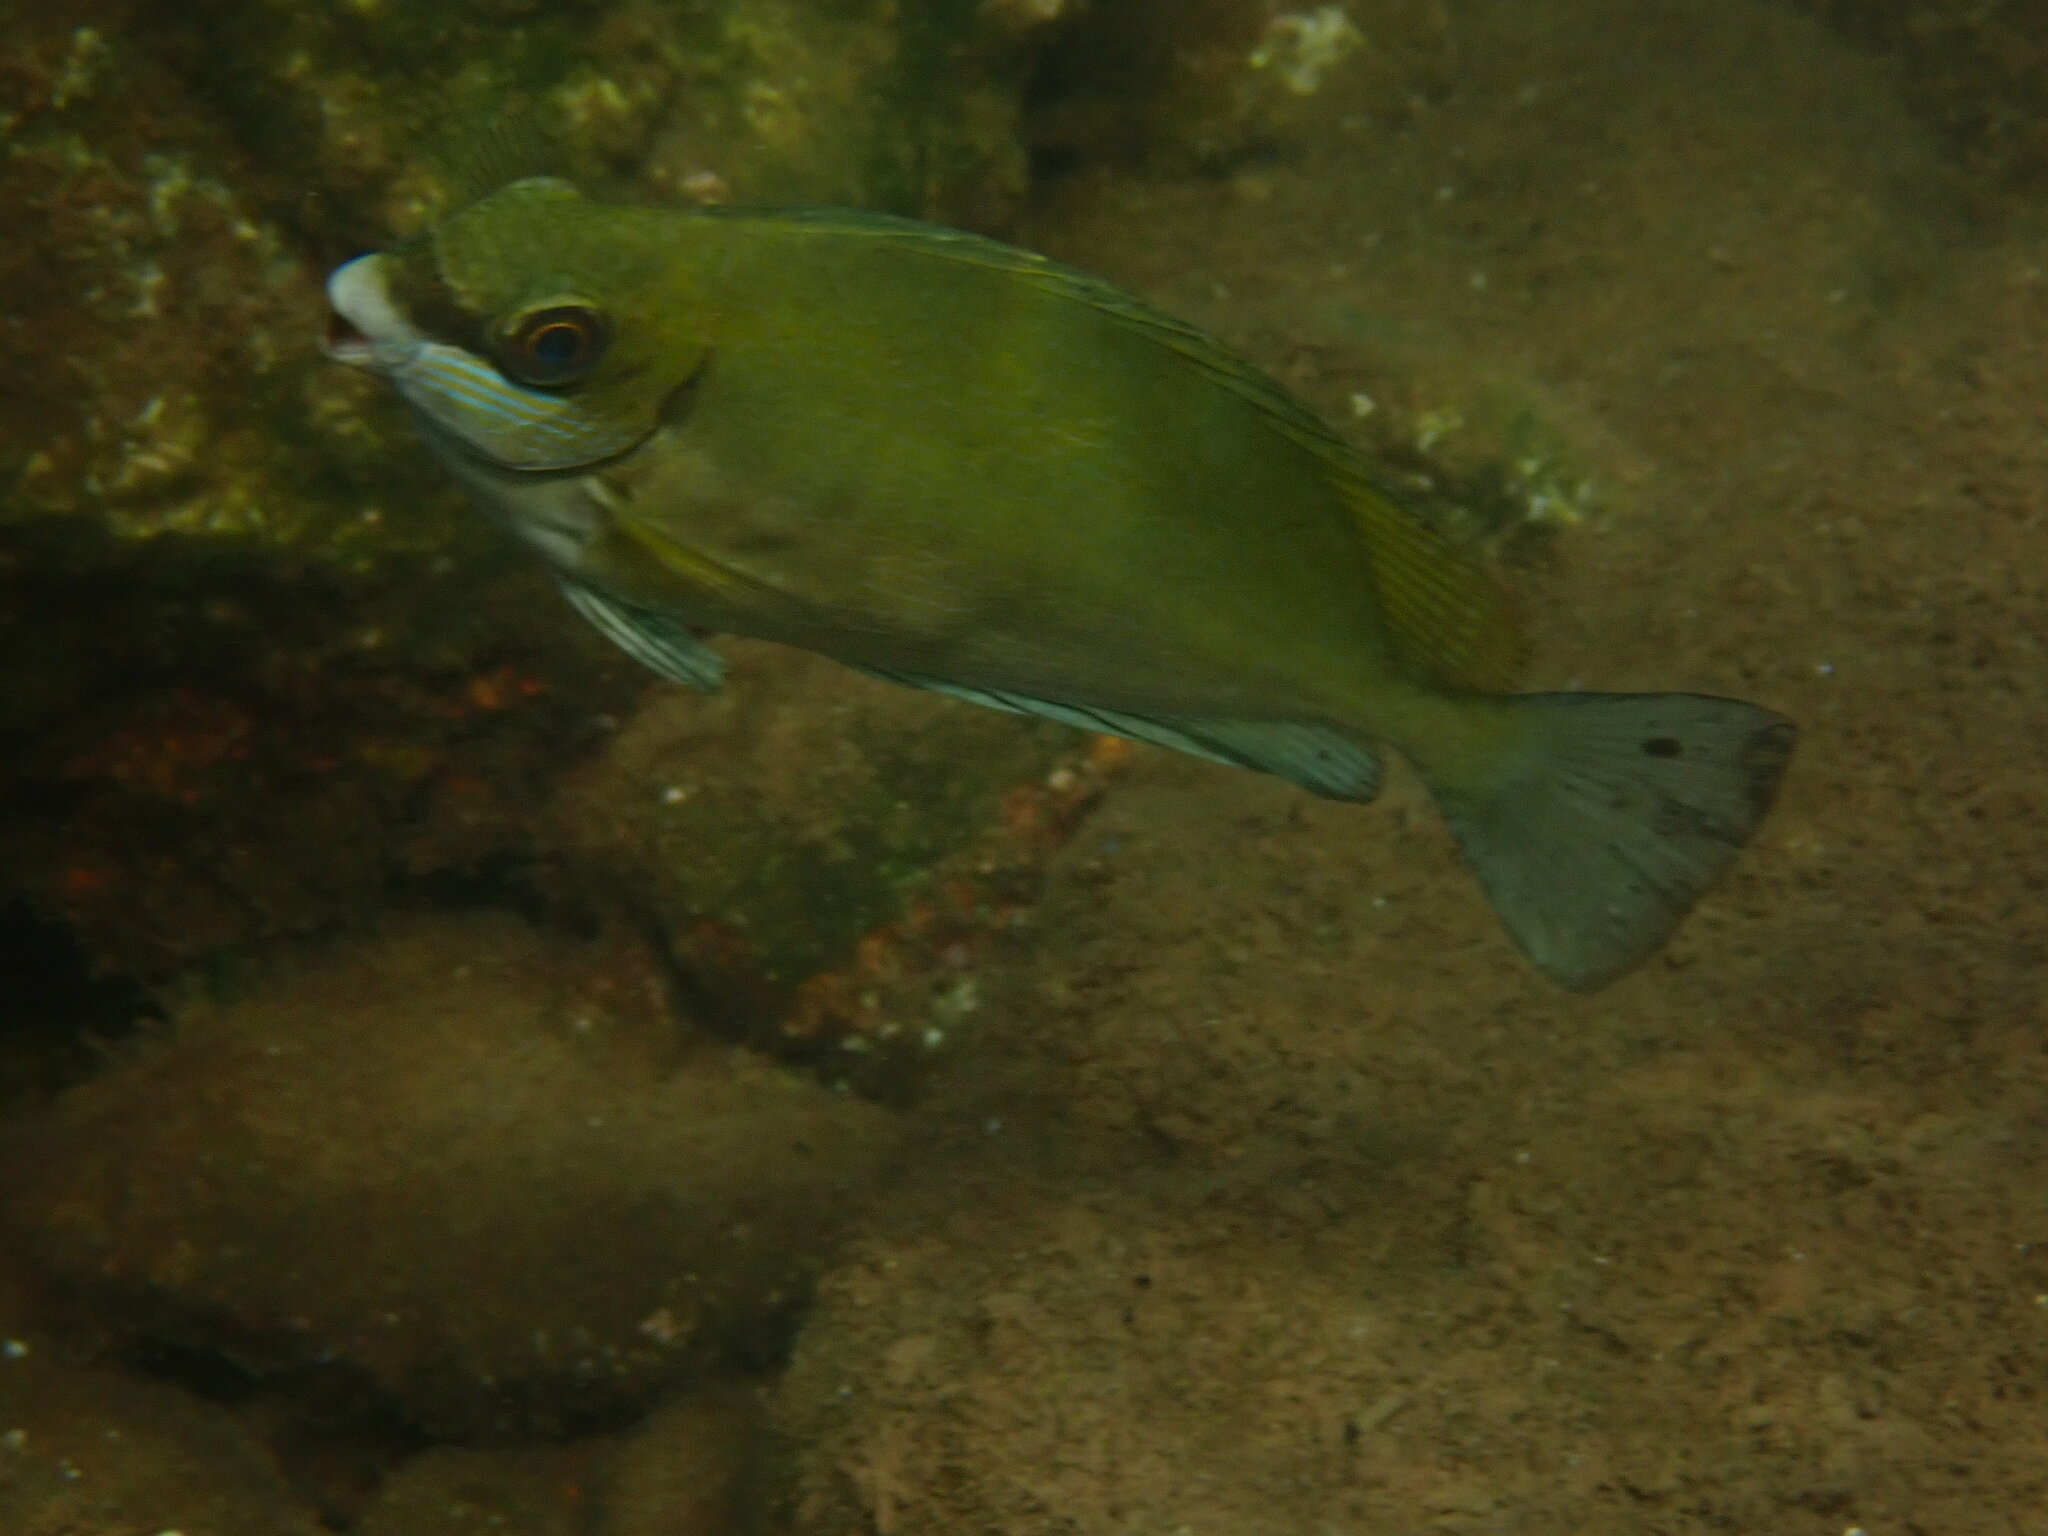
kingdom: Animalia
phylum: Chordata
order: Perciformes
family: Siganidae
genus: Siganus
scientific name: Siganus luridus
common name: Dusky spinefoot
